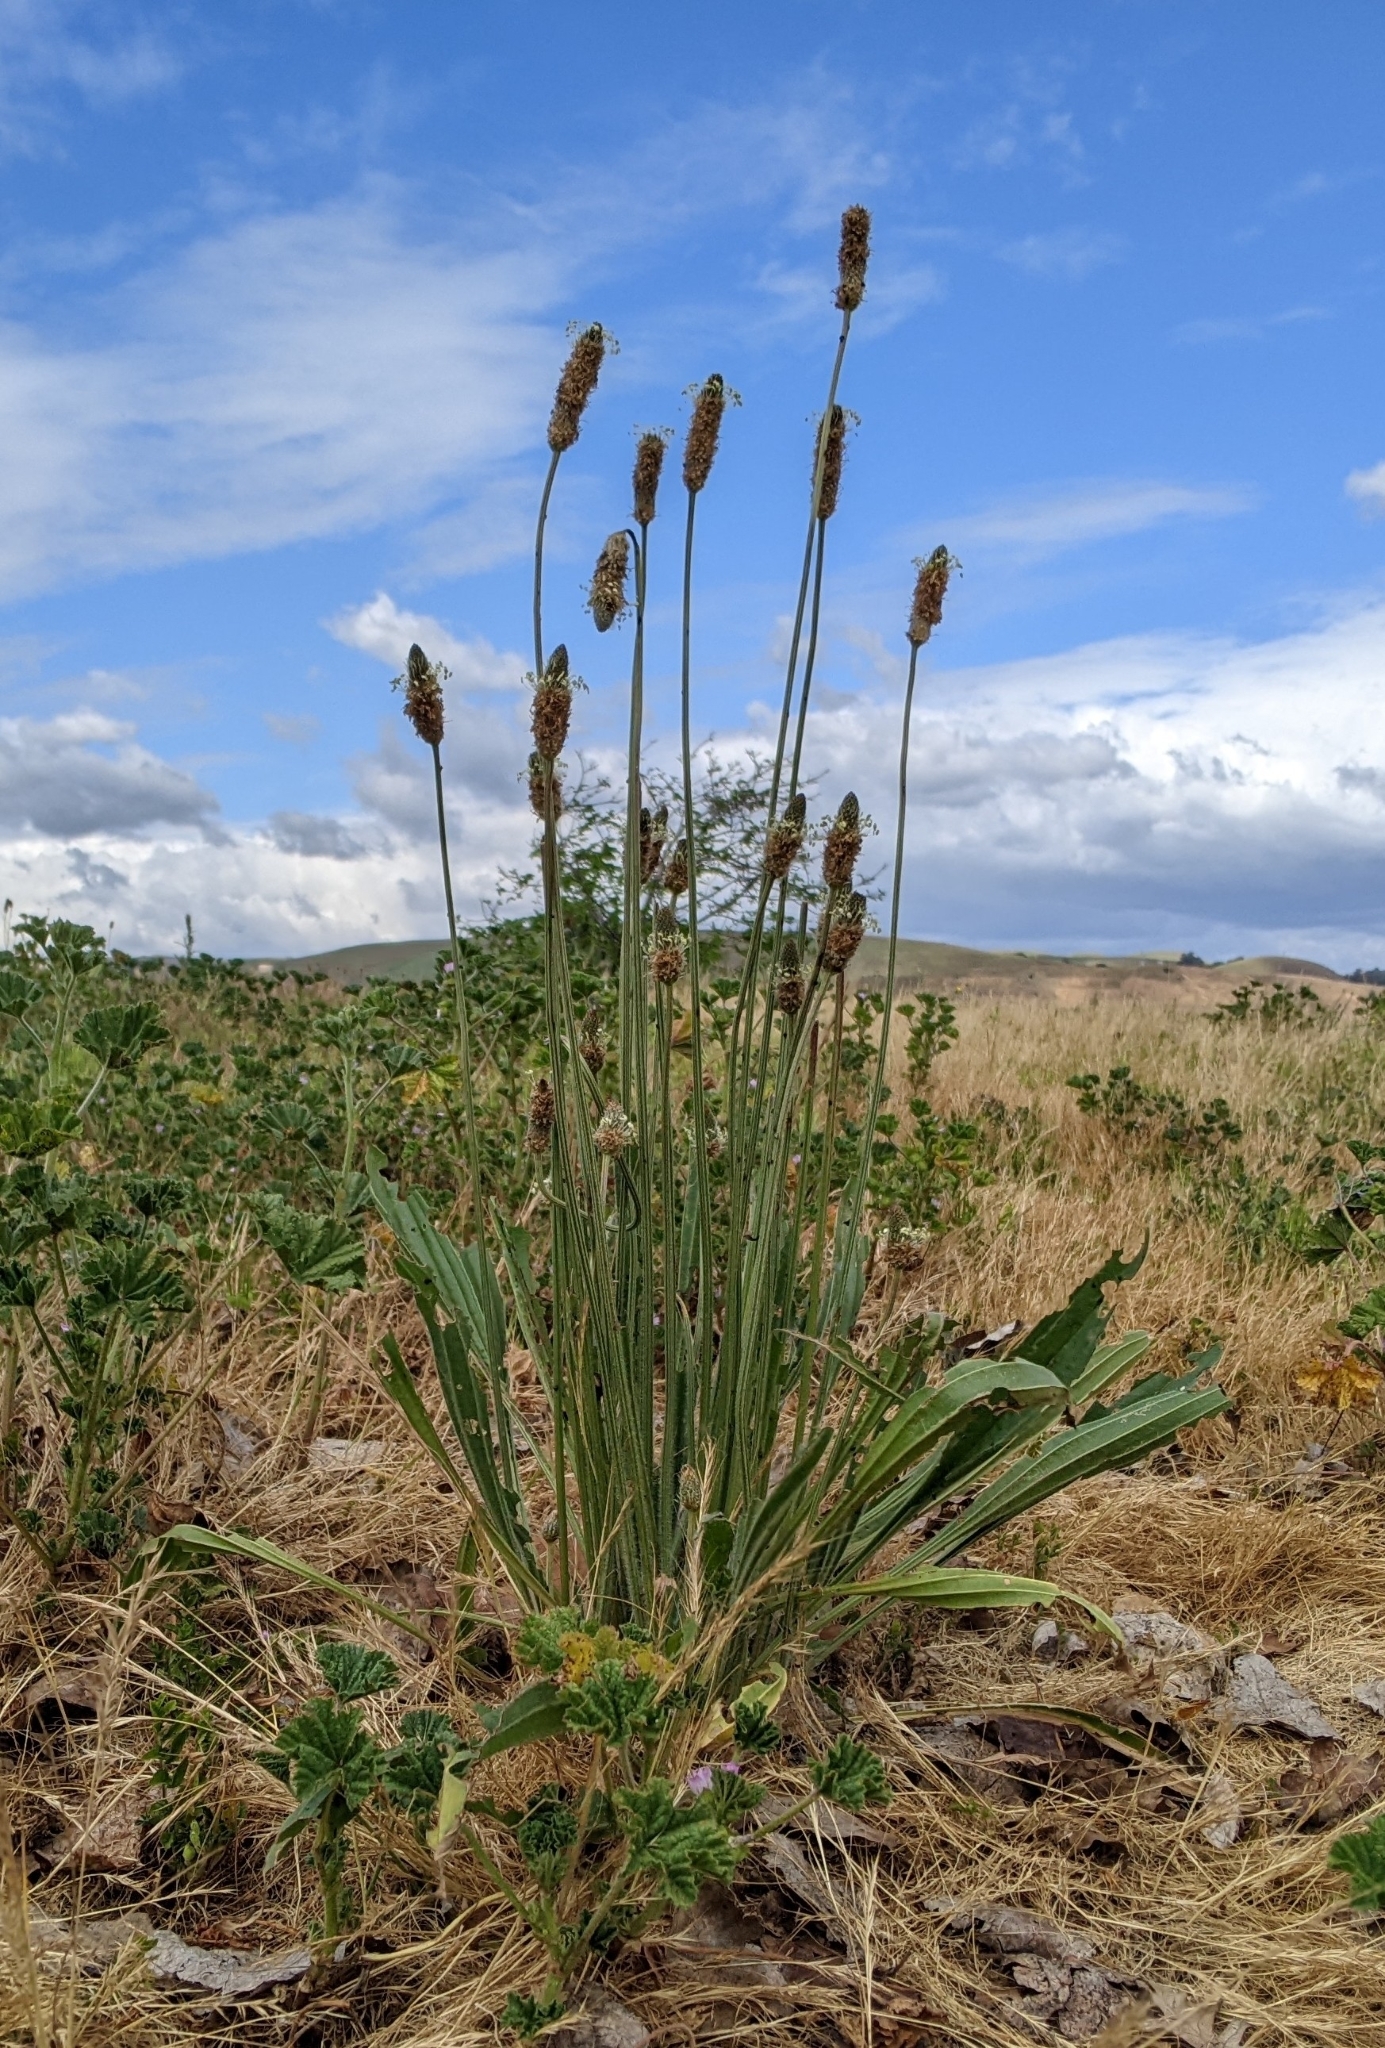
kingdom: Plantae
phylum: Tracheophyta
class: Magnoliopsida
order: Lamiales
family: Plantaginaceae
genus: Plantago
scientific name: Plantago lanceolata
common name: Ribwort plantain
